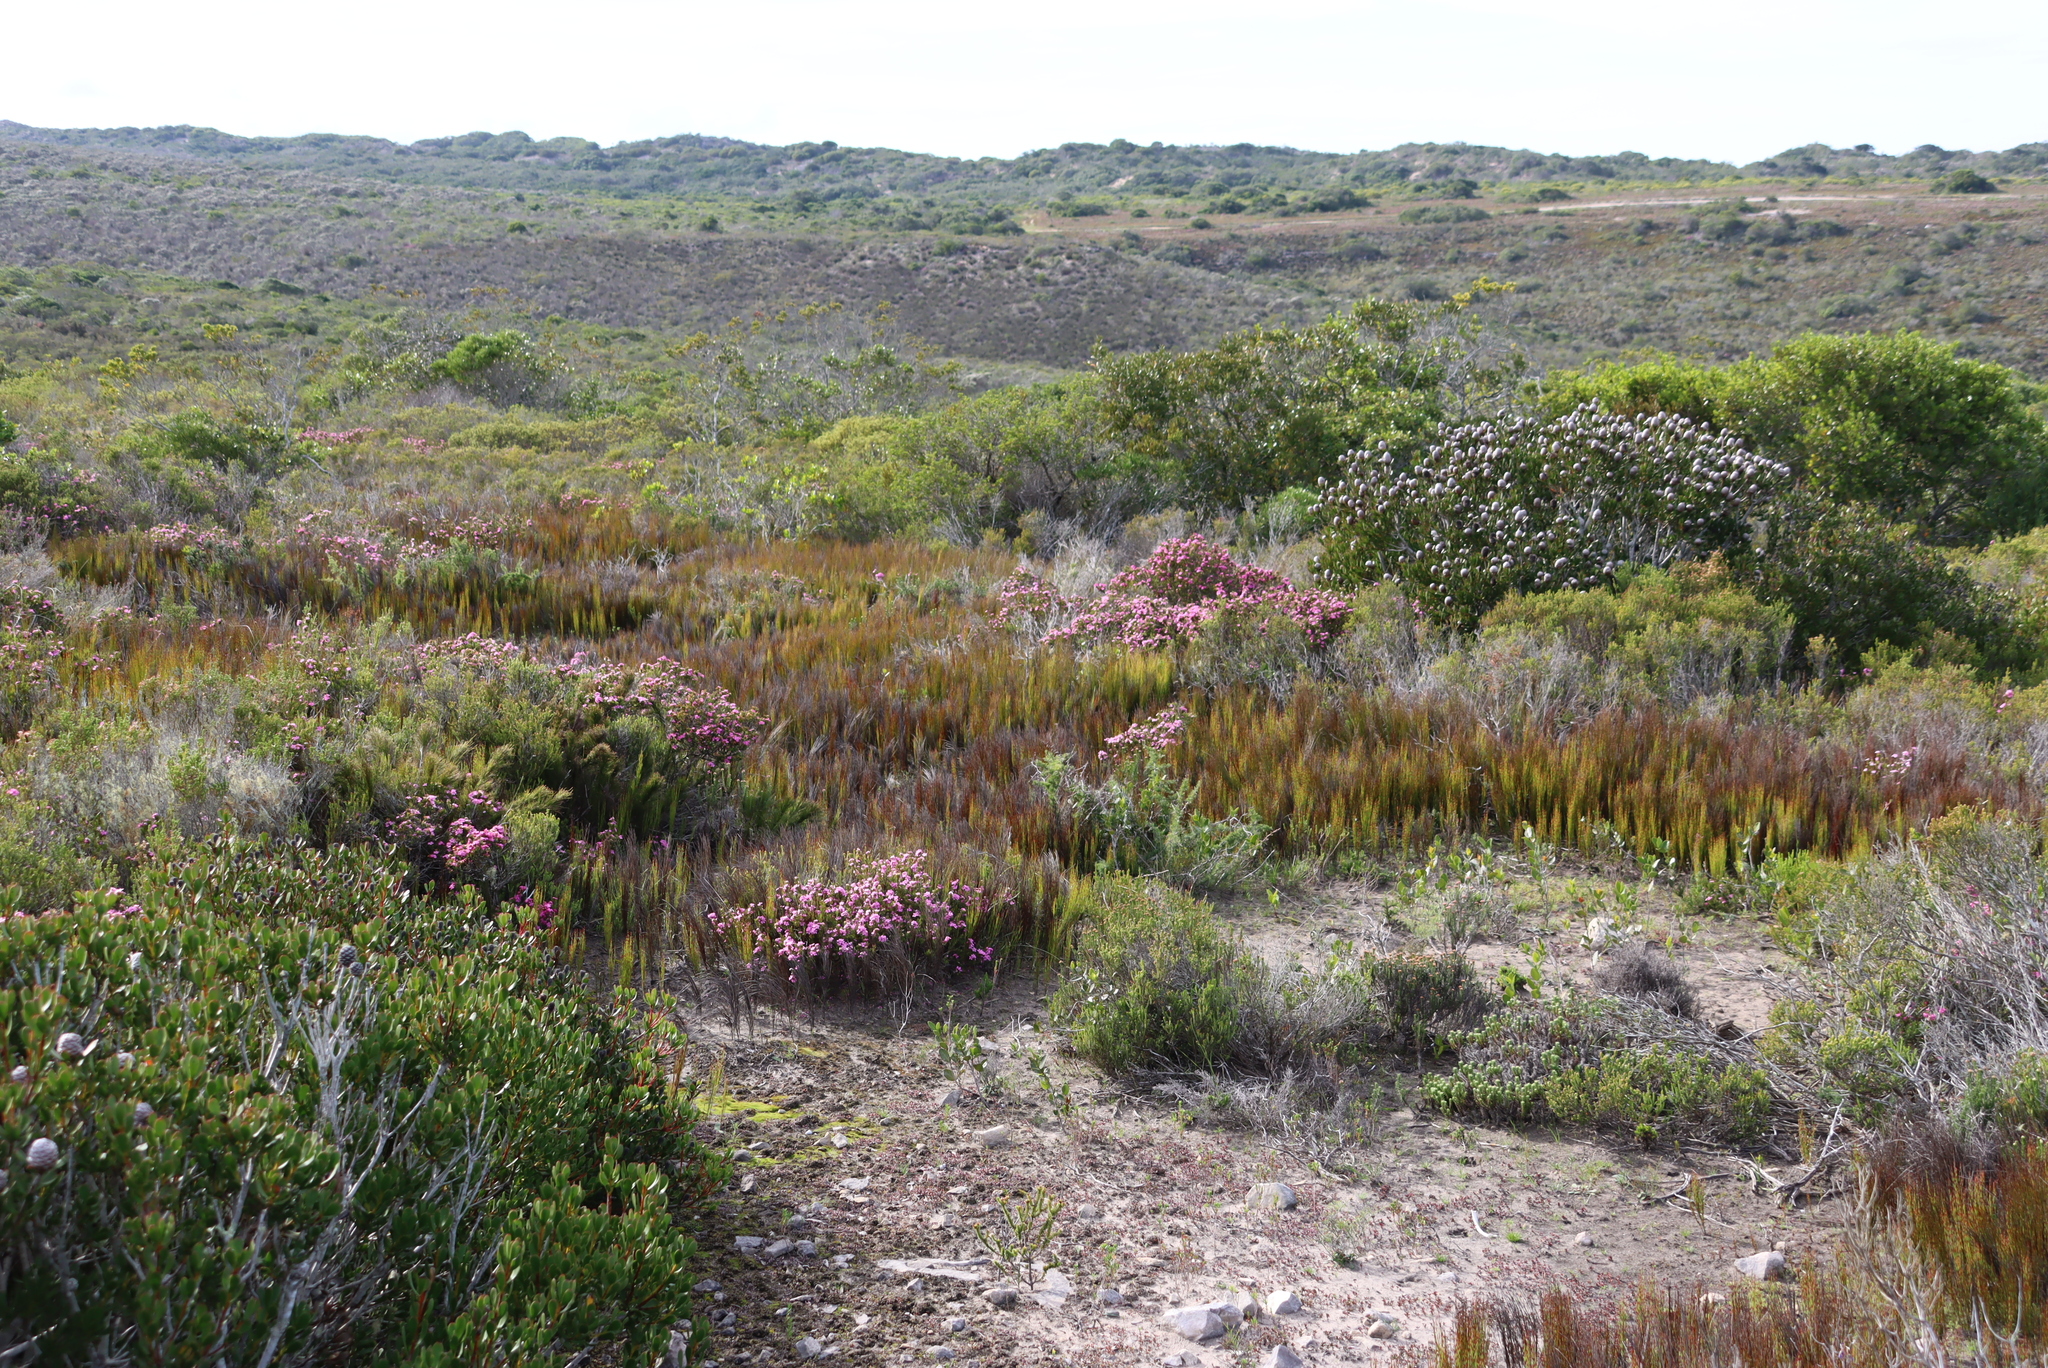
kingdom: Plantae
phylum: Tracheophyta
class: Liliopsida
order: Poales
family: Restionaceae
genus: Elegia
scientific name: Elegia microcarpa
